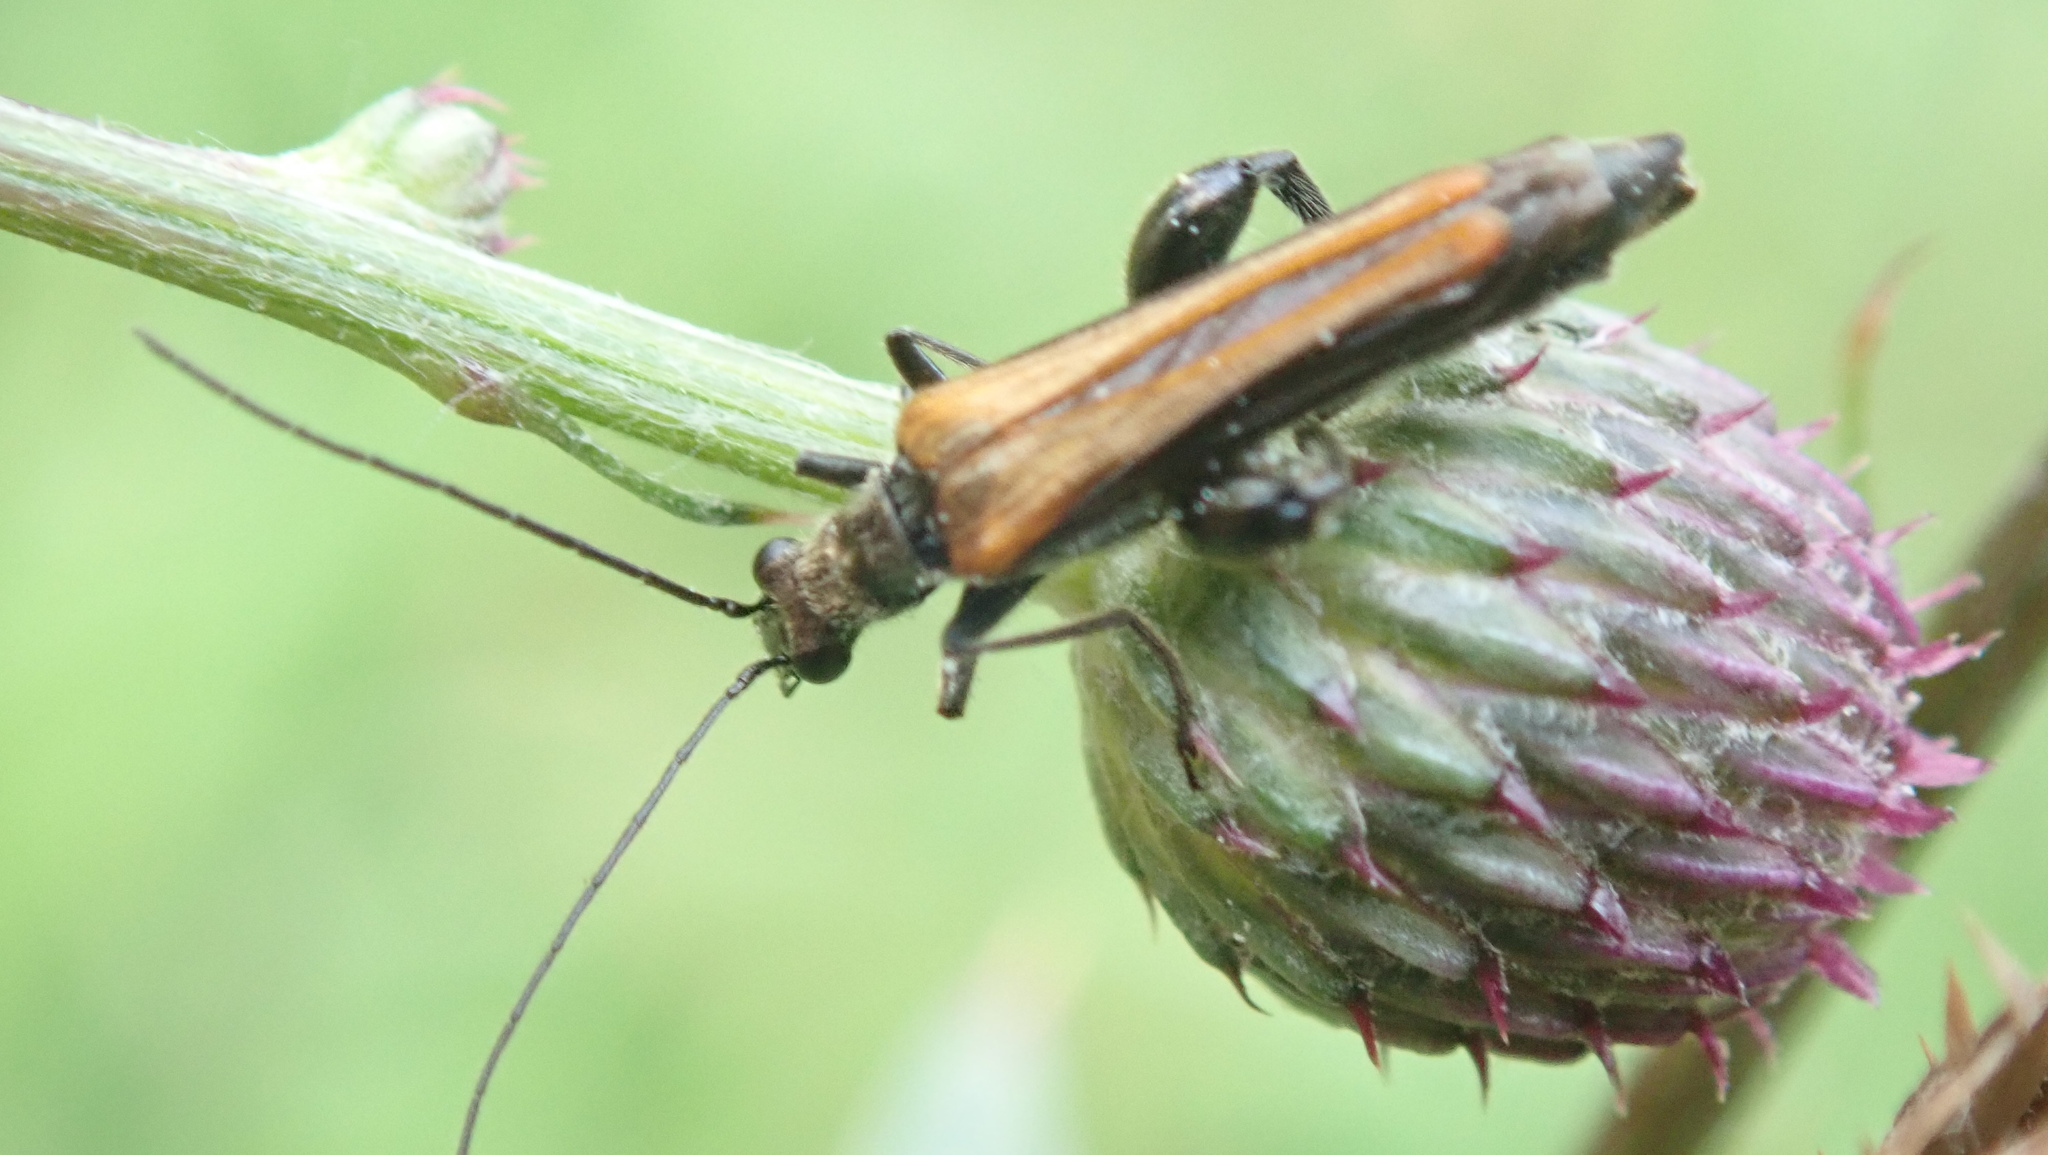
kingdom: Animalia
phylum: Arthropoda
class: Insecta
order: Coleoptera
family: Oedemeridae
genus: Oedemera
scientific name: Oedemera femorata
